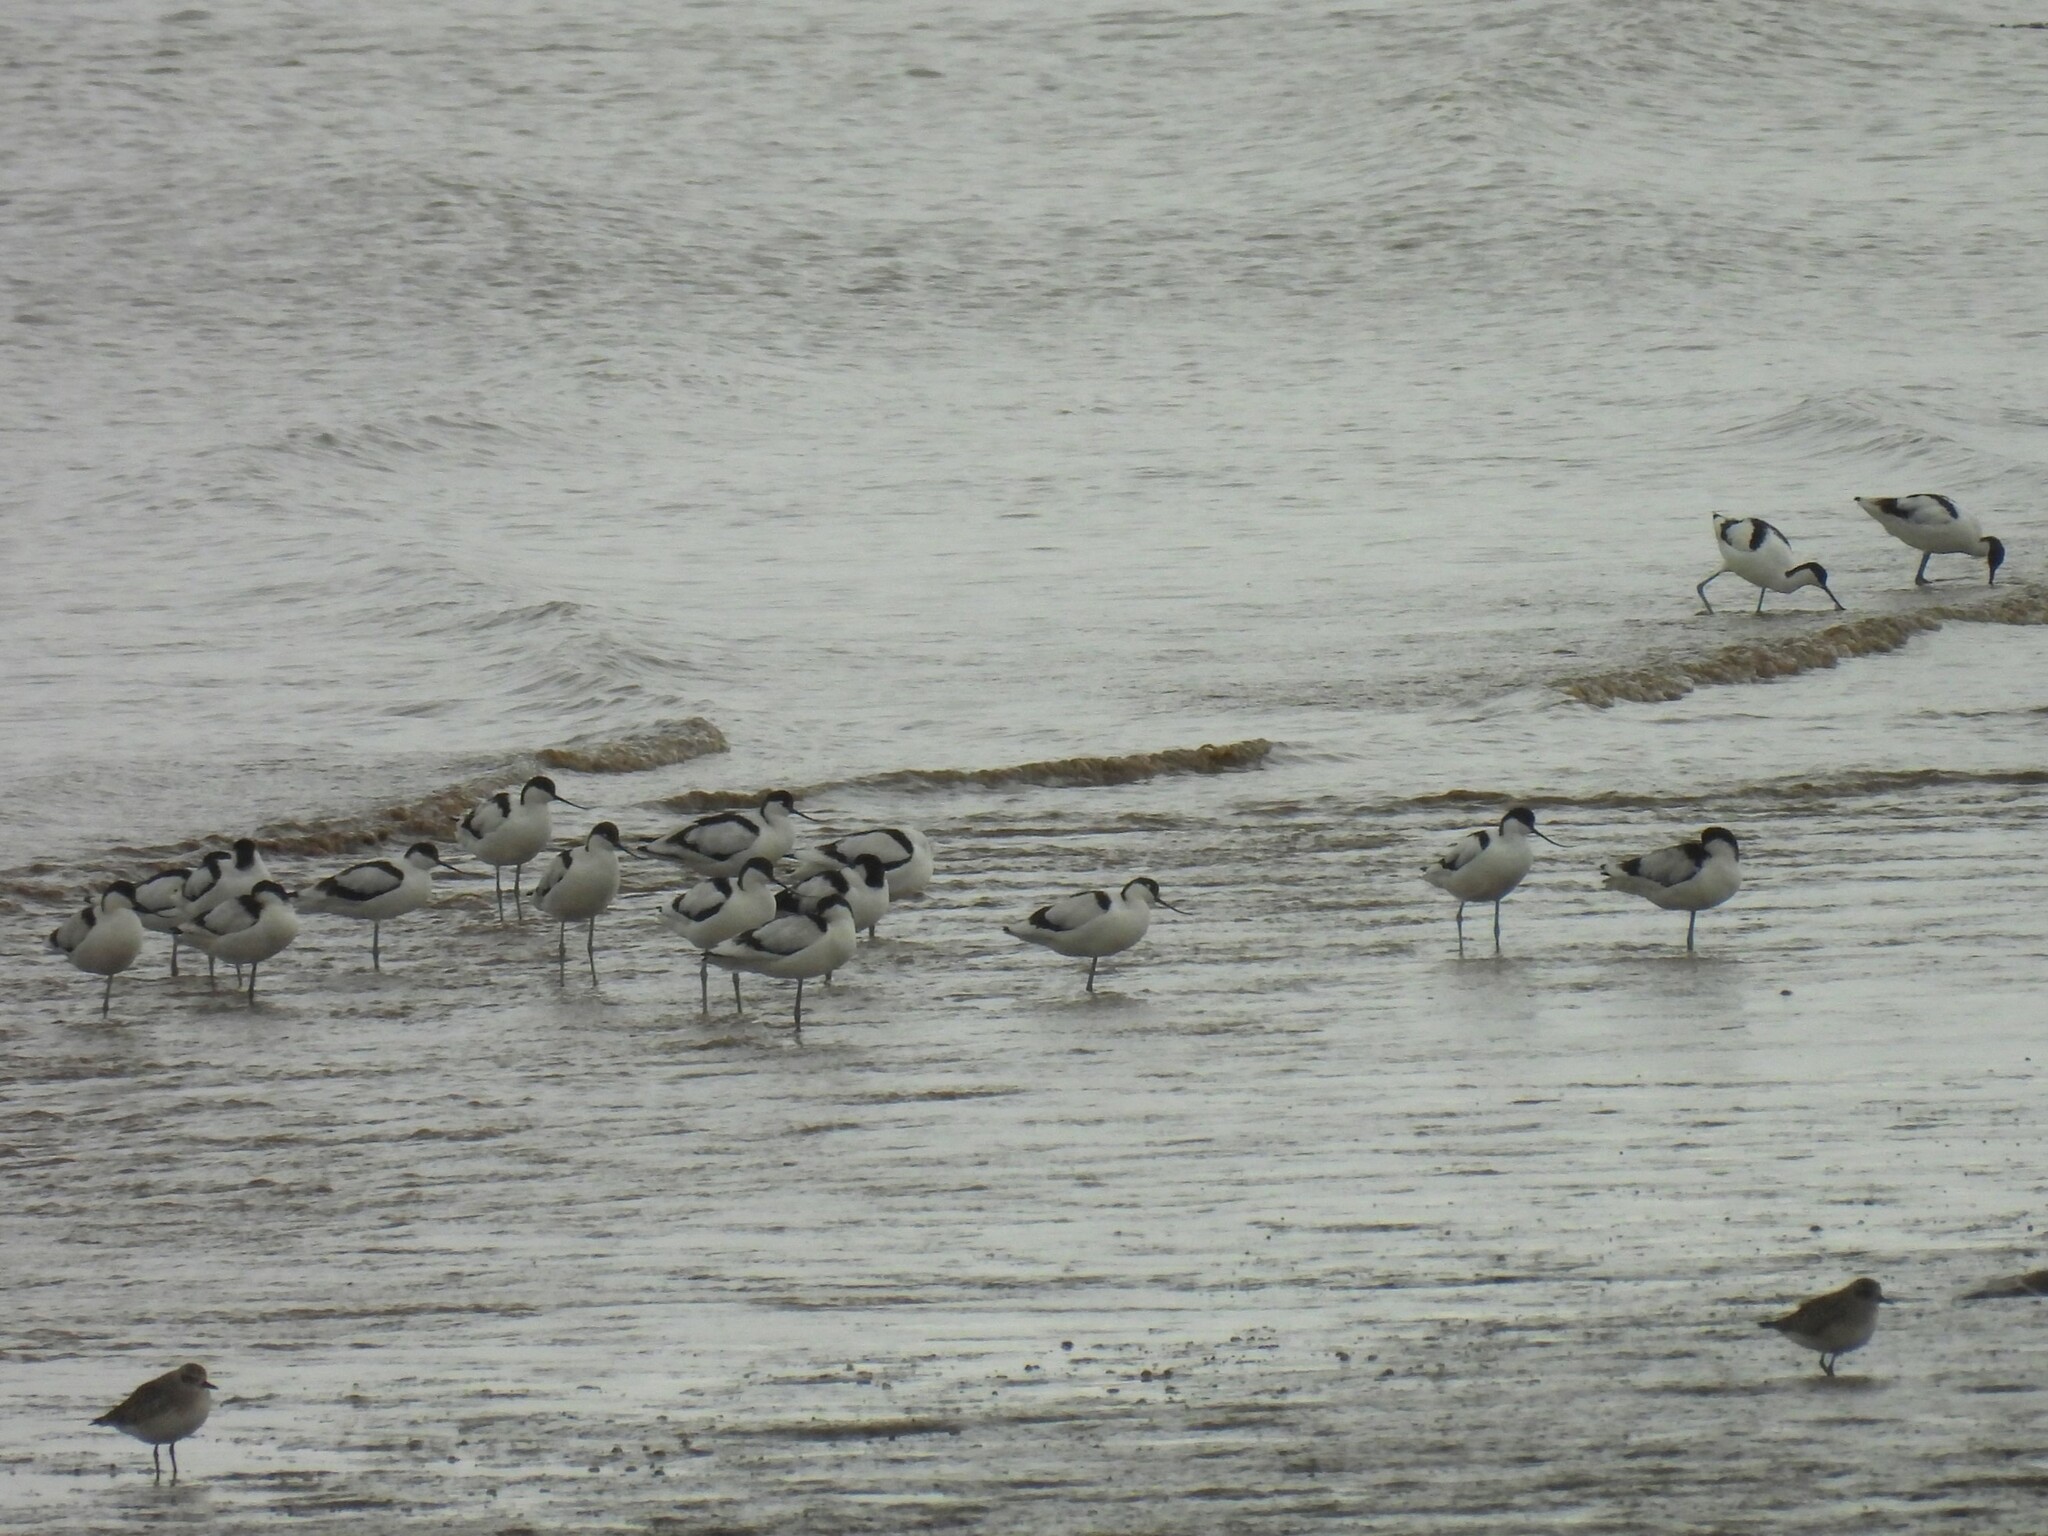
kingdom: Animalia
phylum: Chordata
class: Aves
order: Charadriiformes
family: Recurvirostridae
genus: Recurvirostra
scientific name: Recurvirostra avosetta
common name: Pied avocet
